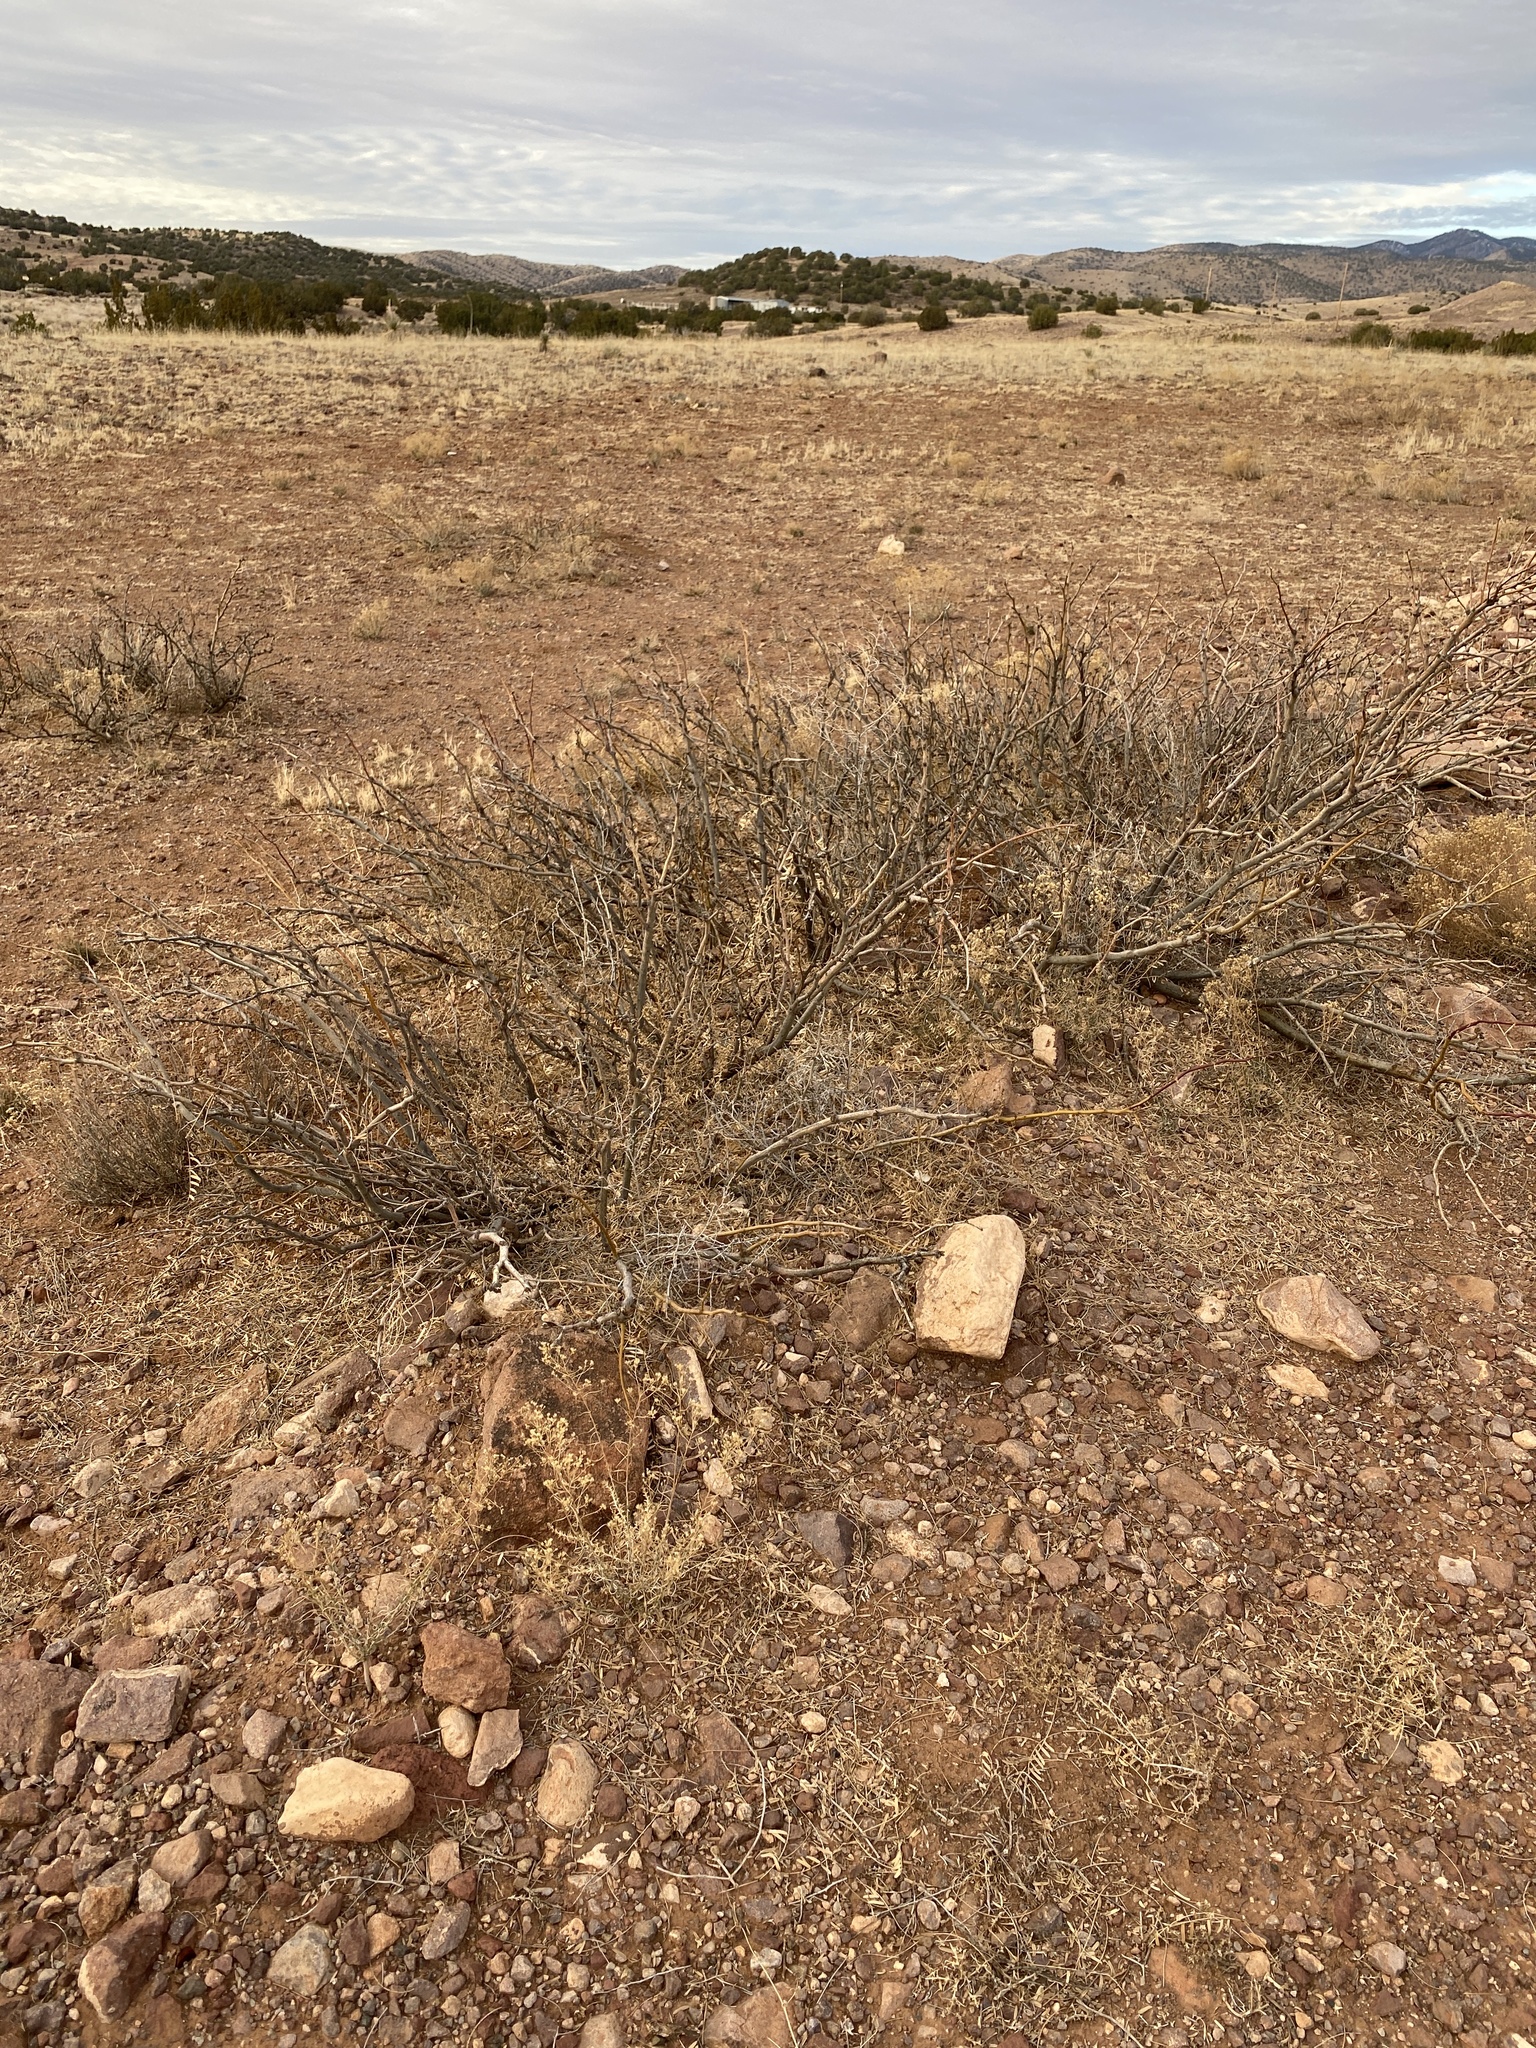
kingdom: Plantae
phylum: Tracheophyta
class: Magnoliopsida
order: Fabales
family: Fabaceae
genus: Prosopis
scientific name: Prosopis glandulosa
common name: Honey mesquite
